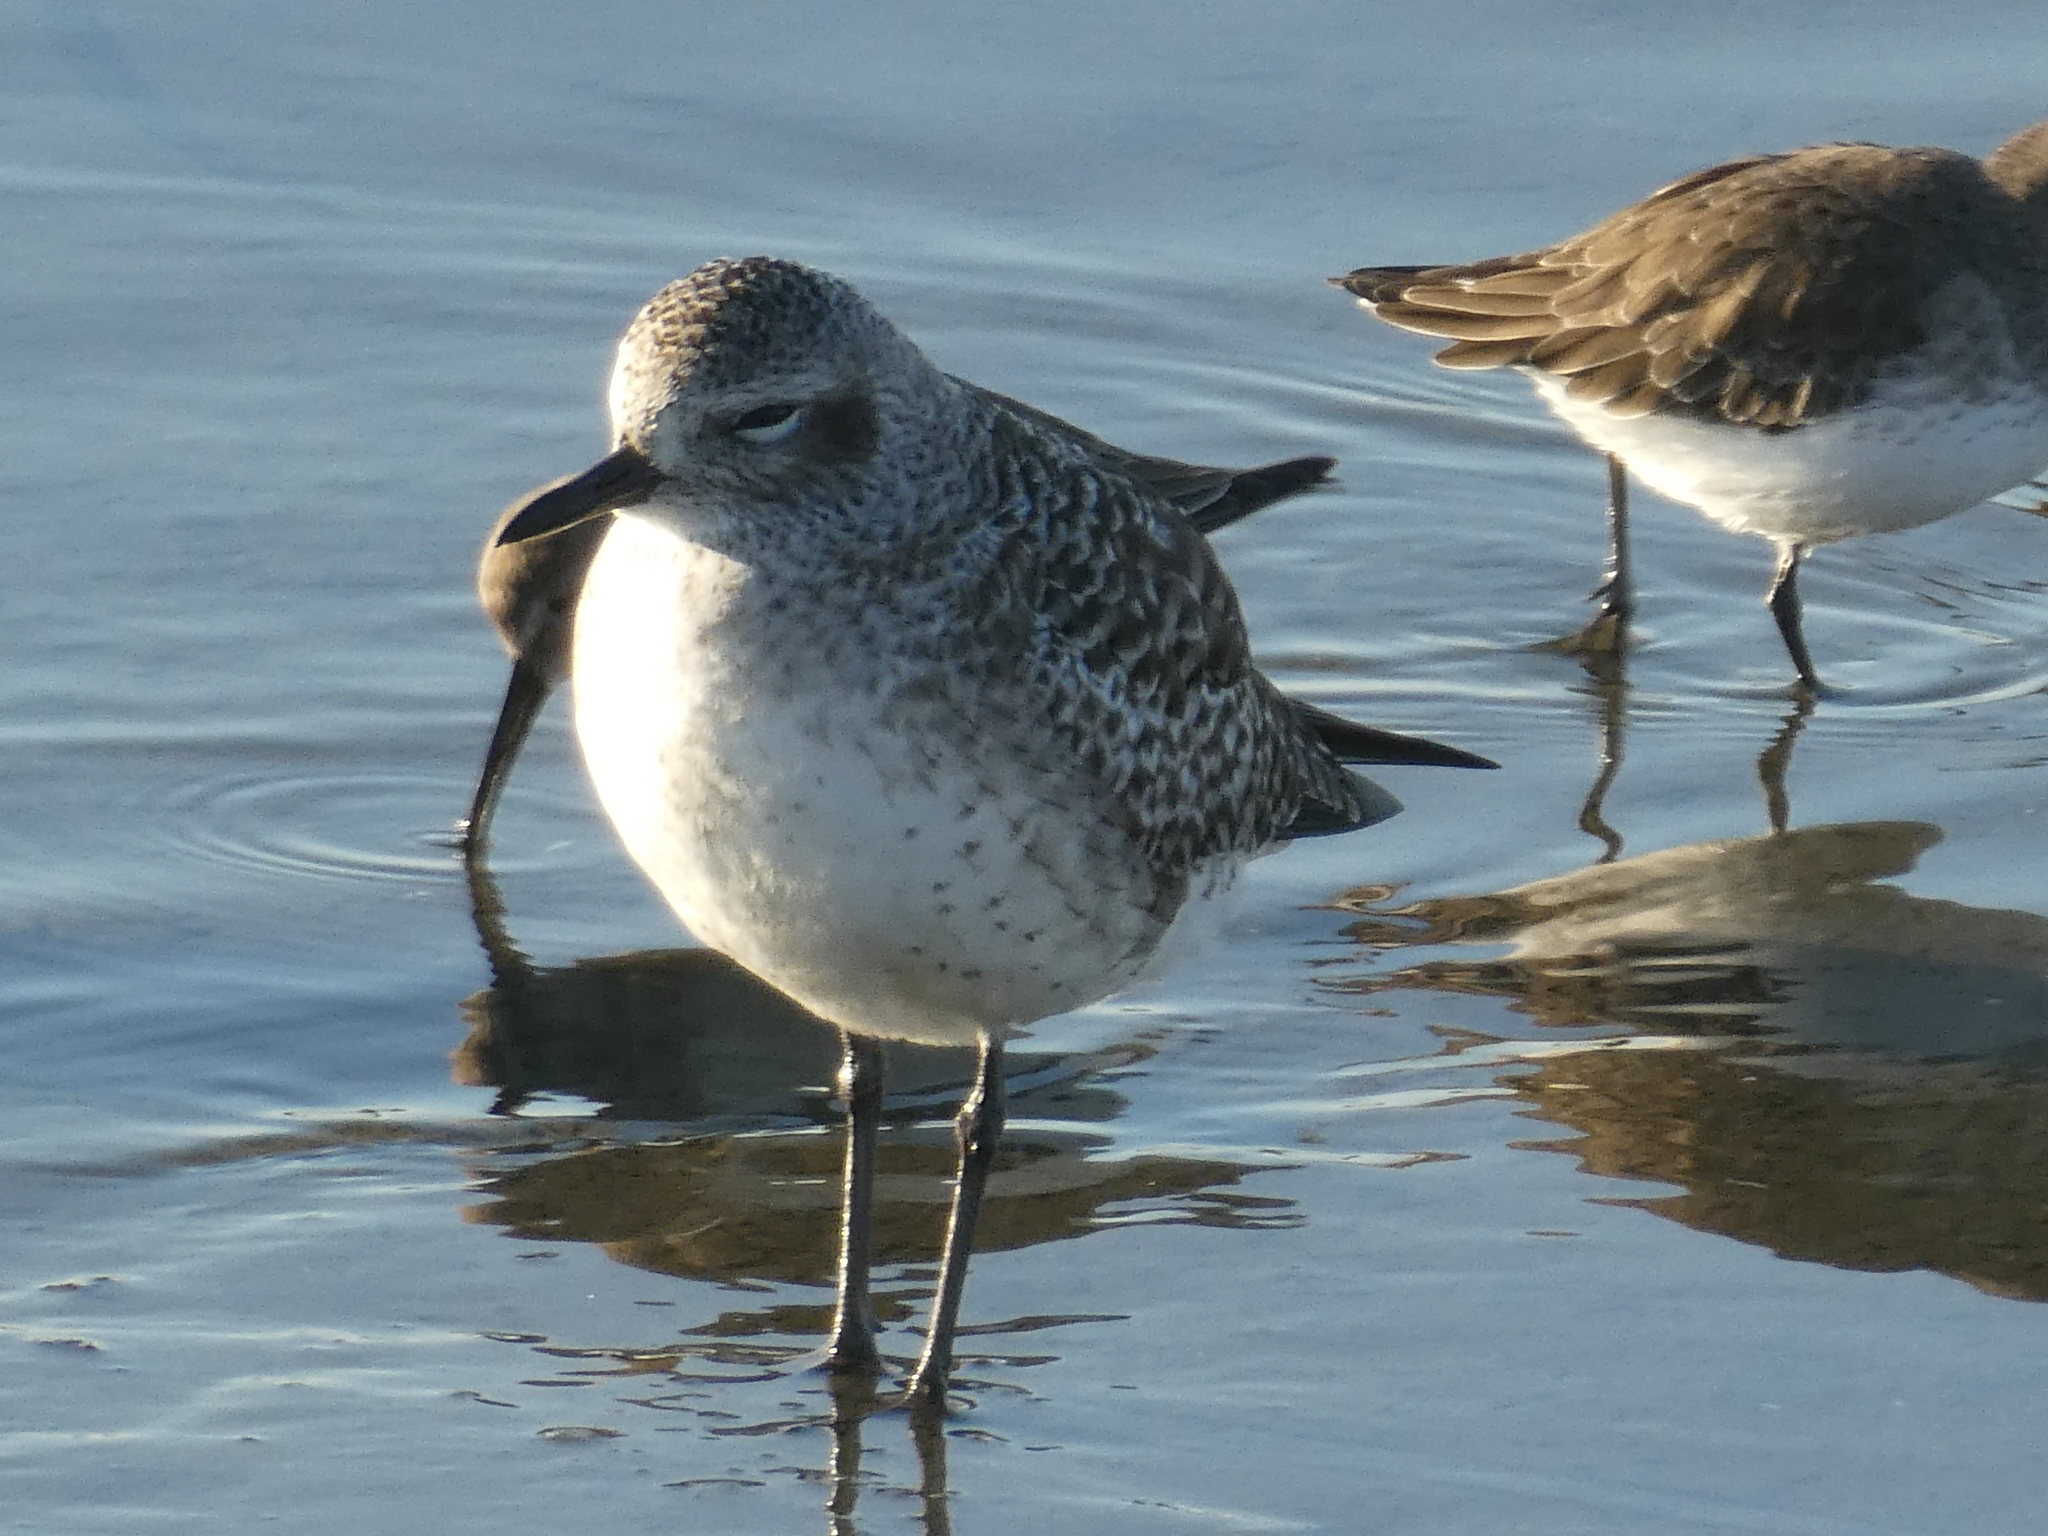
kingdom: Animalia
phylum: Chordata
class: Aves
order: Charadriiformes
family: Charadriidae
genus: Pluvialis
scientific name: Pluvialis squatarola
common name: Grey plover
